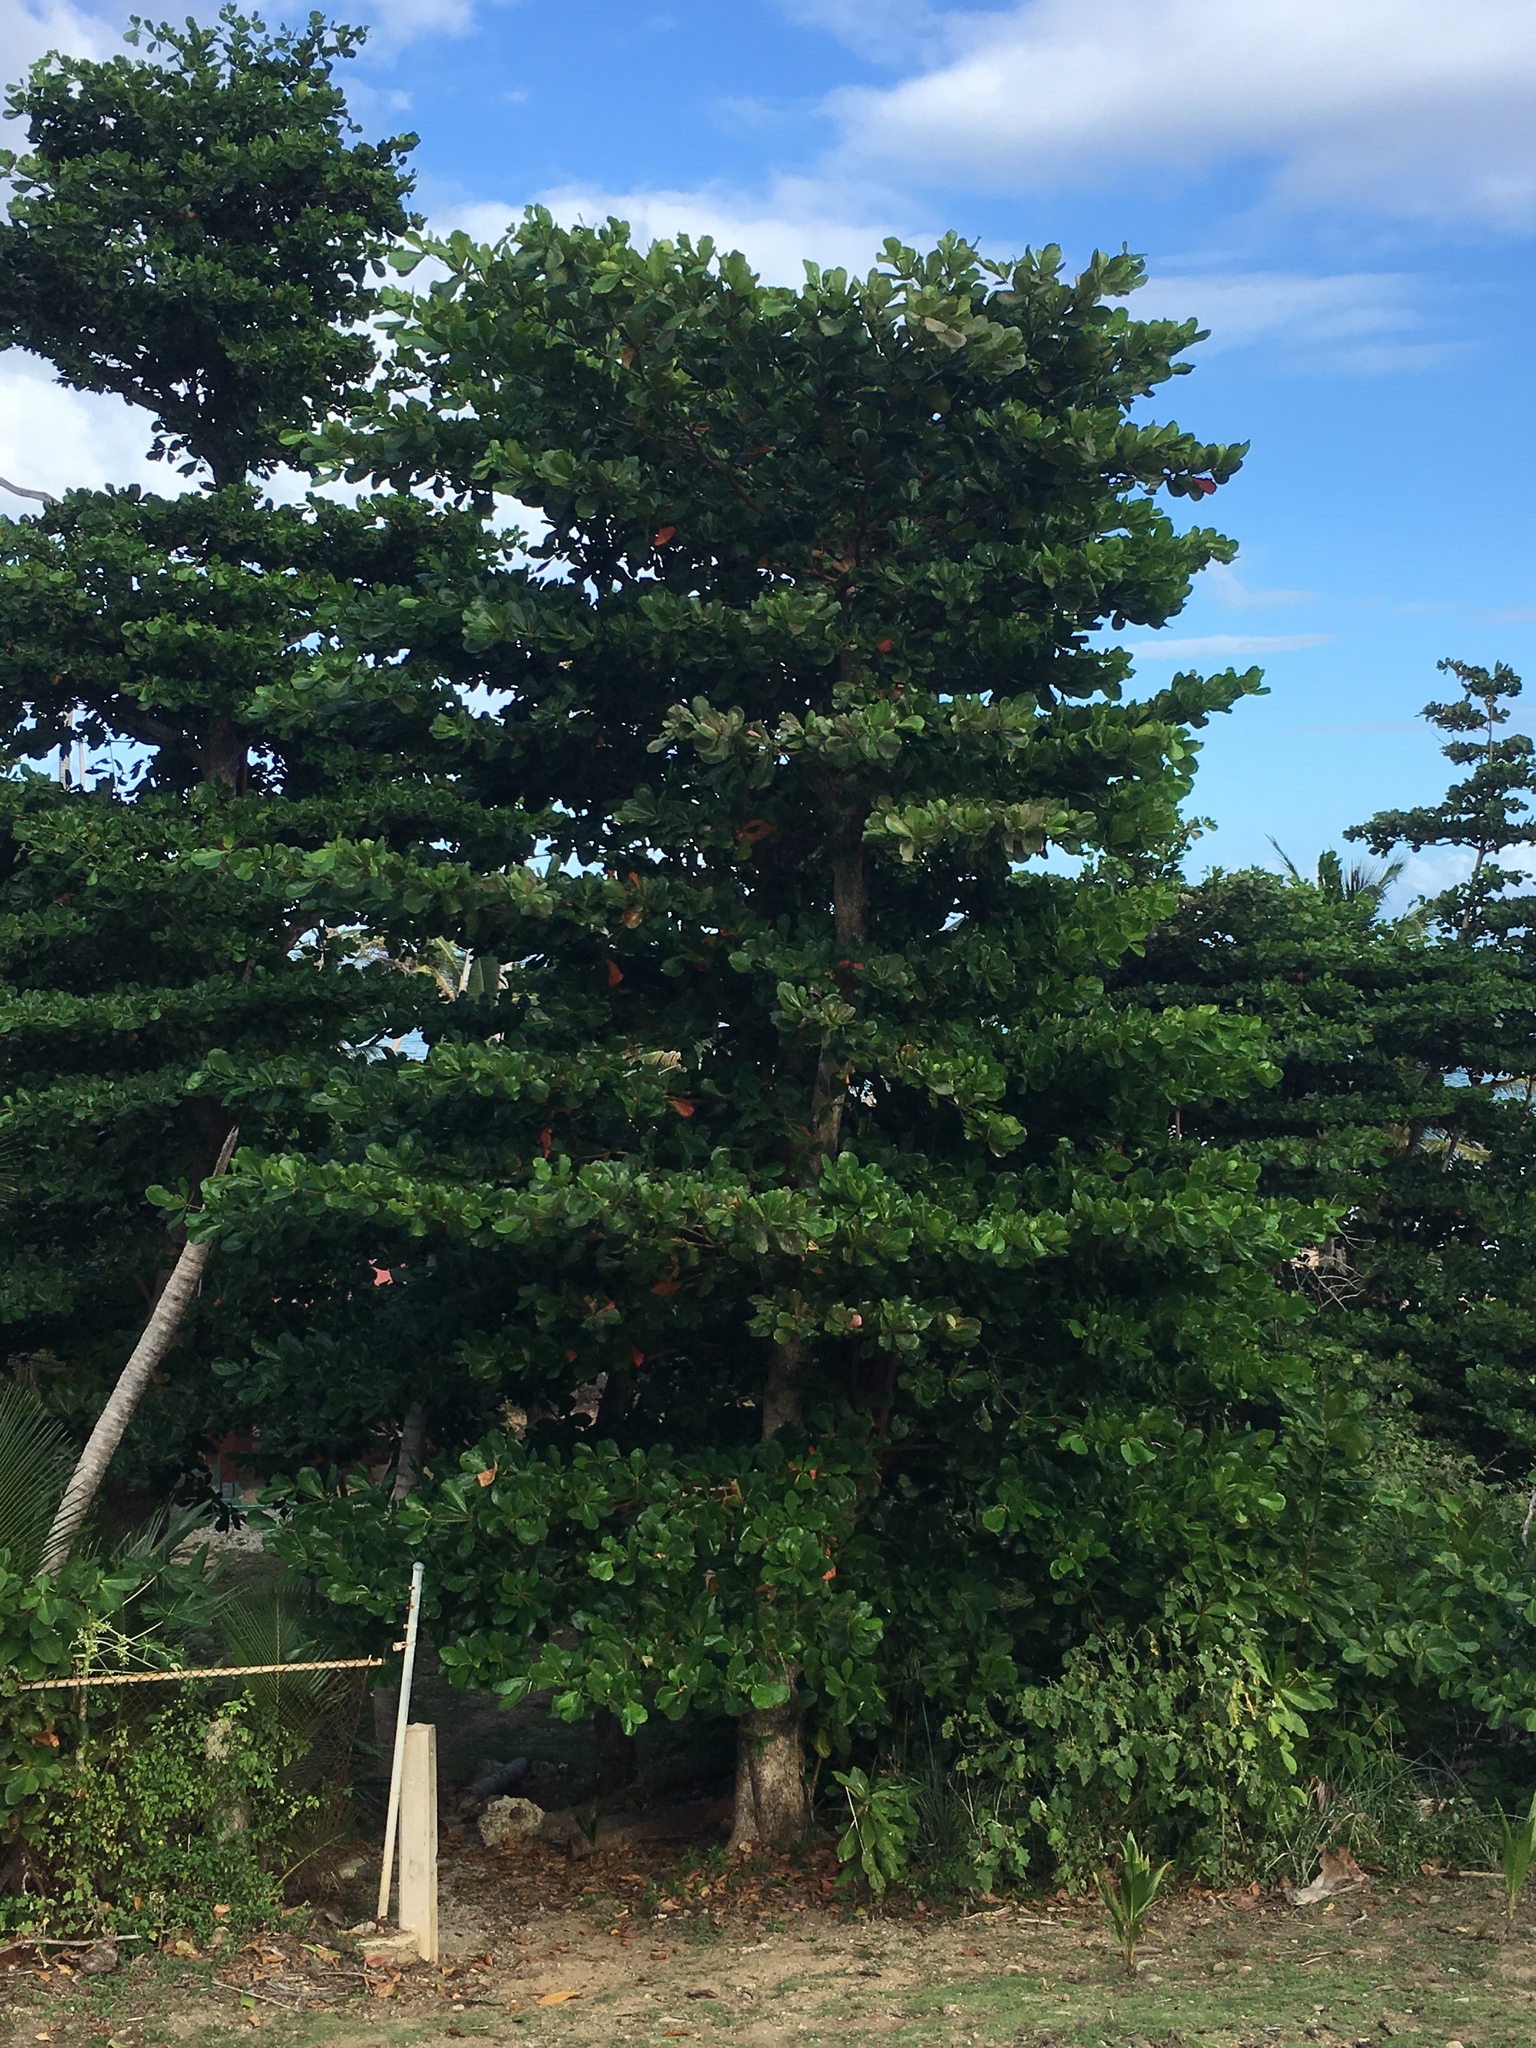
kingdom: Plantae
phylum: Tracheophyta
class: Magnoliopsida
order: Myrtales
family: Combretaceae
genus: Terminalia
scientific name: Terminalia catappa
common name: Tropical almond
